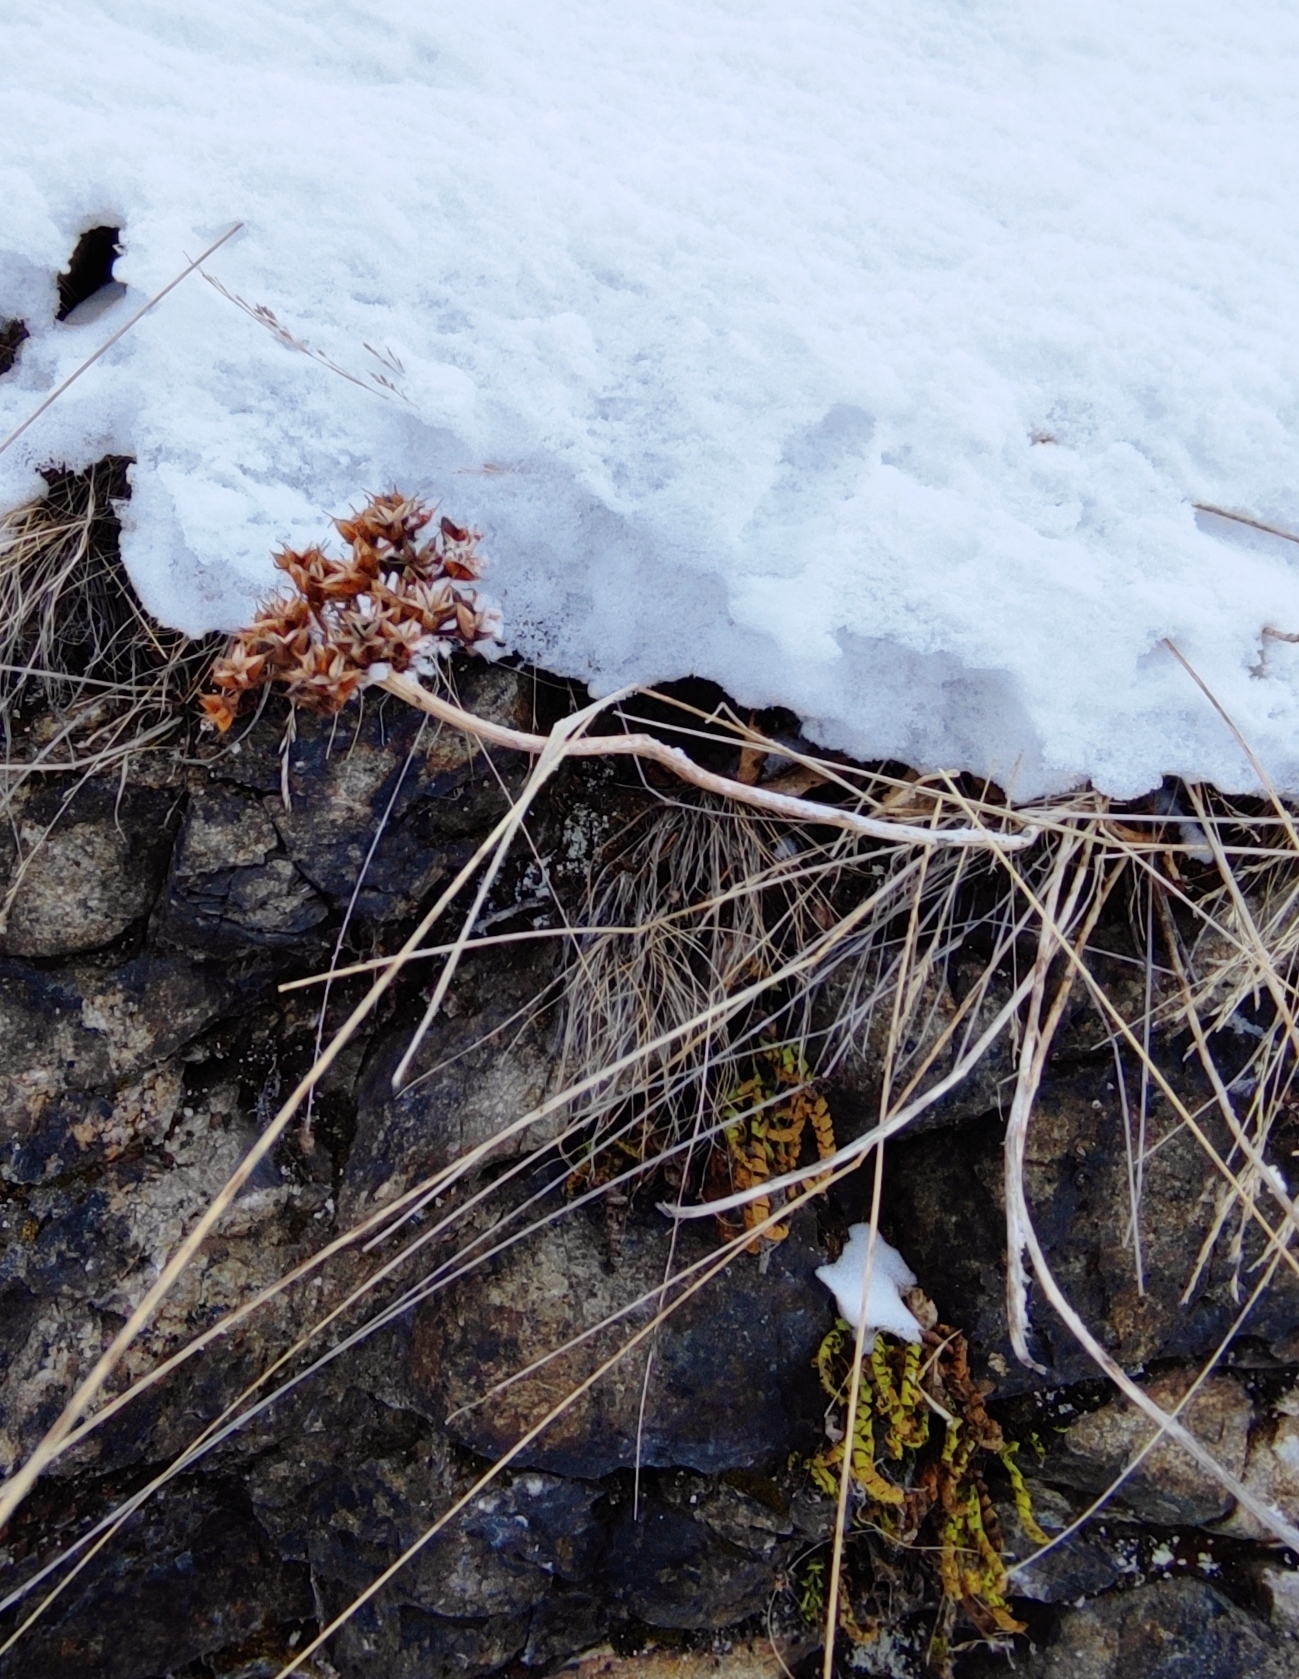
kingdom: Plantae
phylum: Tracheophyta
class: Magnoliopsida
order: Saxifragales
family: Crassulaceae
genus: Phedimus
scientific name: Phedimus aizoon
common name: Orpin aizoon
